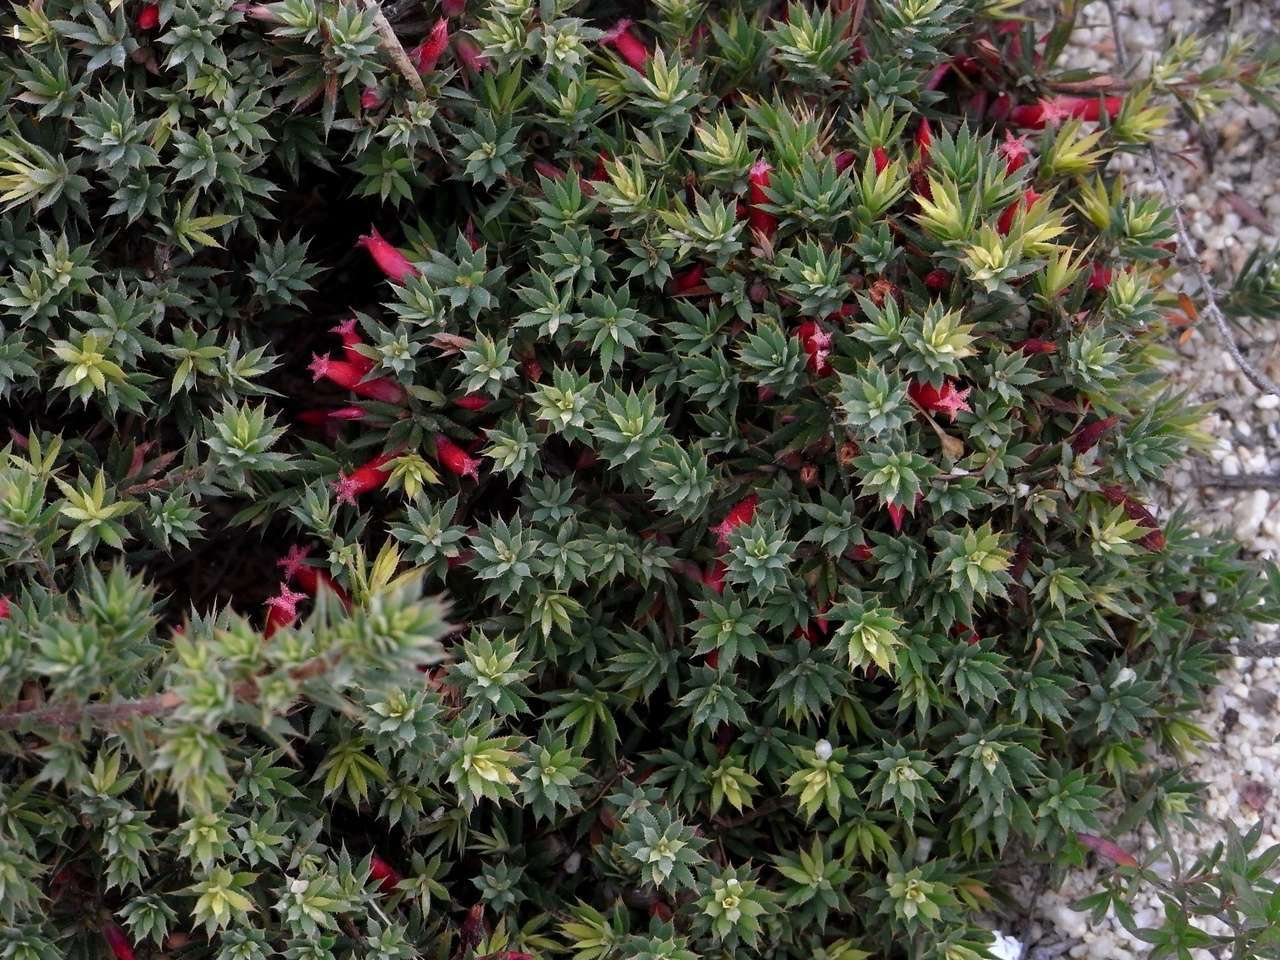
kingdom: Plantae
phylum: Tracheophyta
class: Magnoliopsida
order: Ericales
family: Ericaceae
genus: Styphelia
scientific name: Styphelia humifusa
